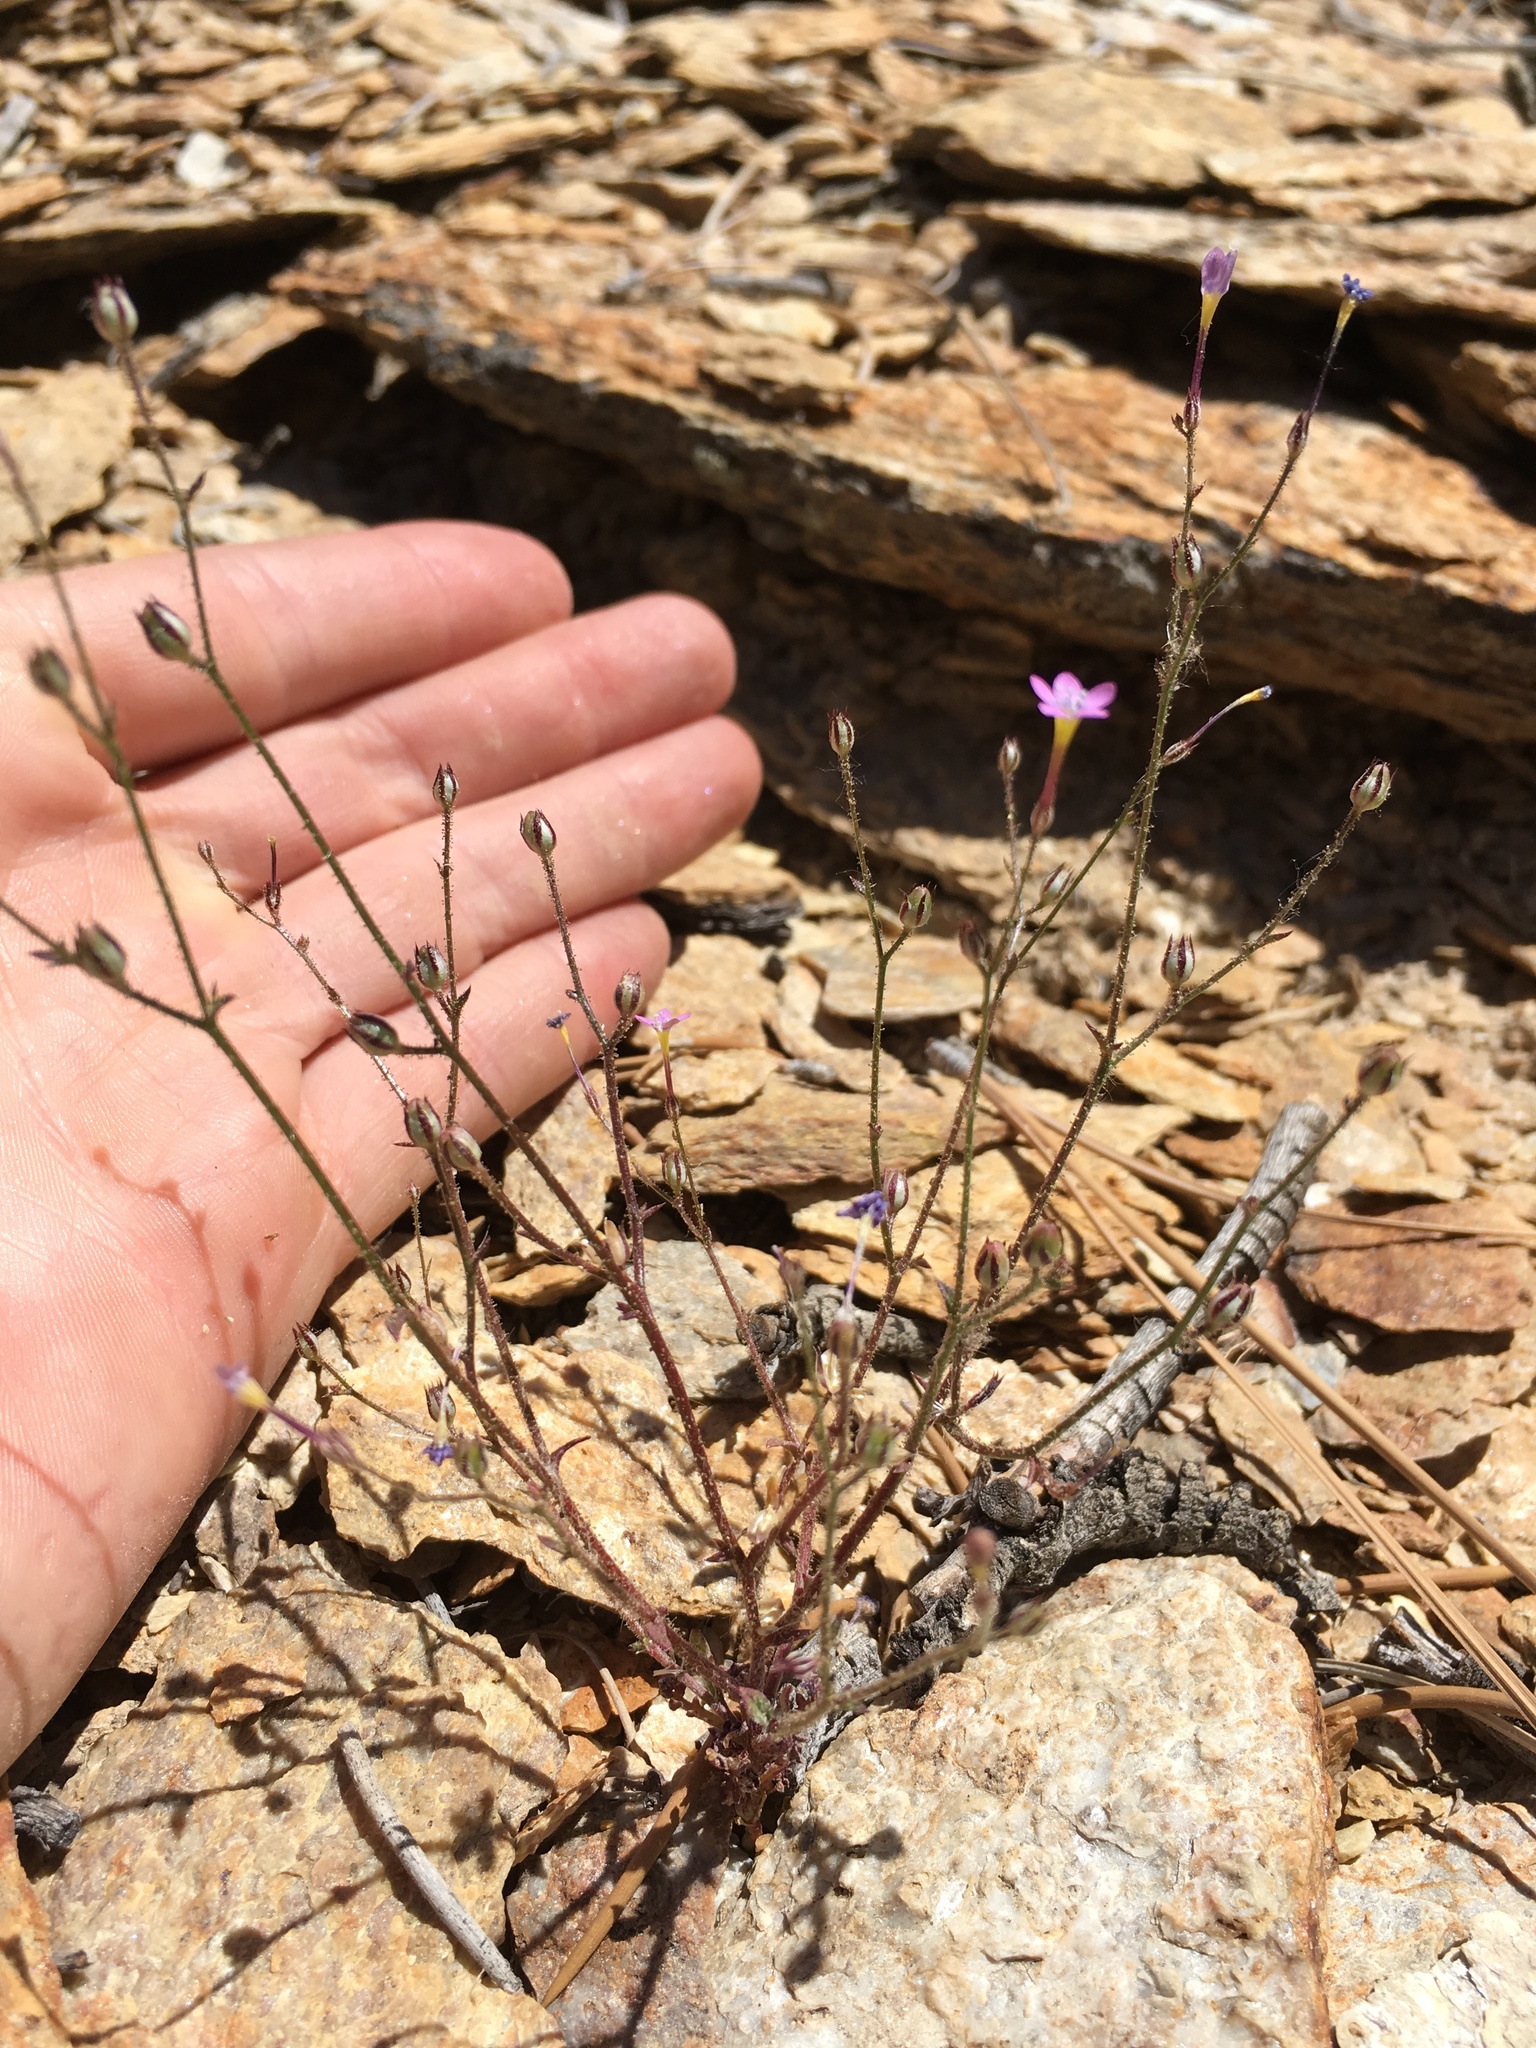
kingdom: Plantae
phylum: Tracheophyta
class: Magnoliopsida
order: Ericales
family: Polemoniaceae
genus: Gilia
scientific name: Gilia ophthalmoides
